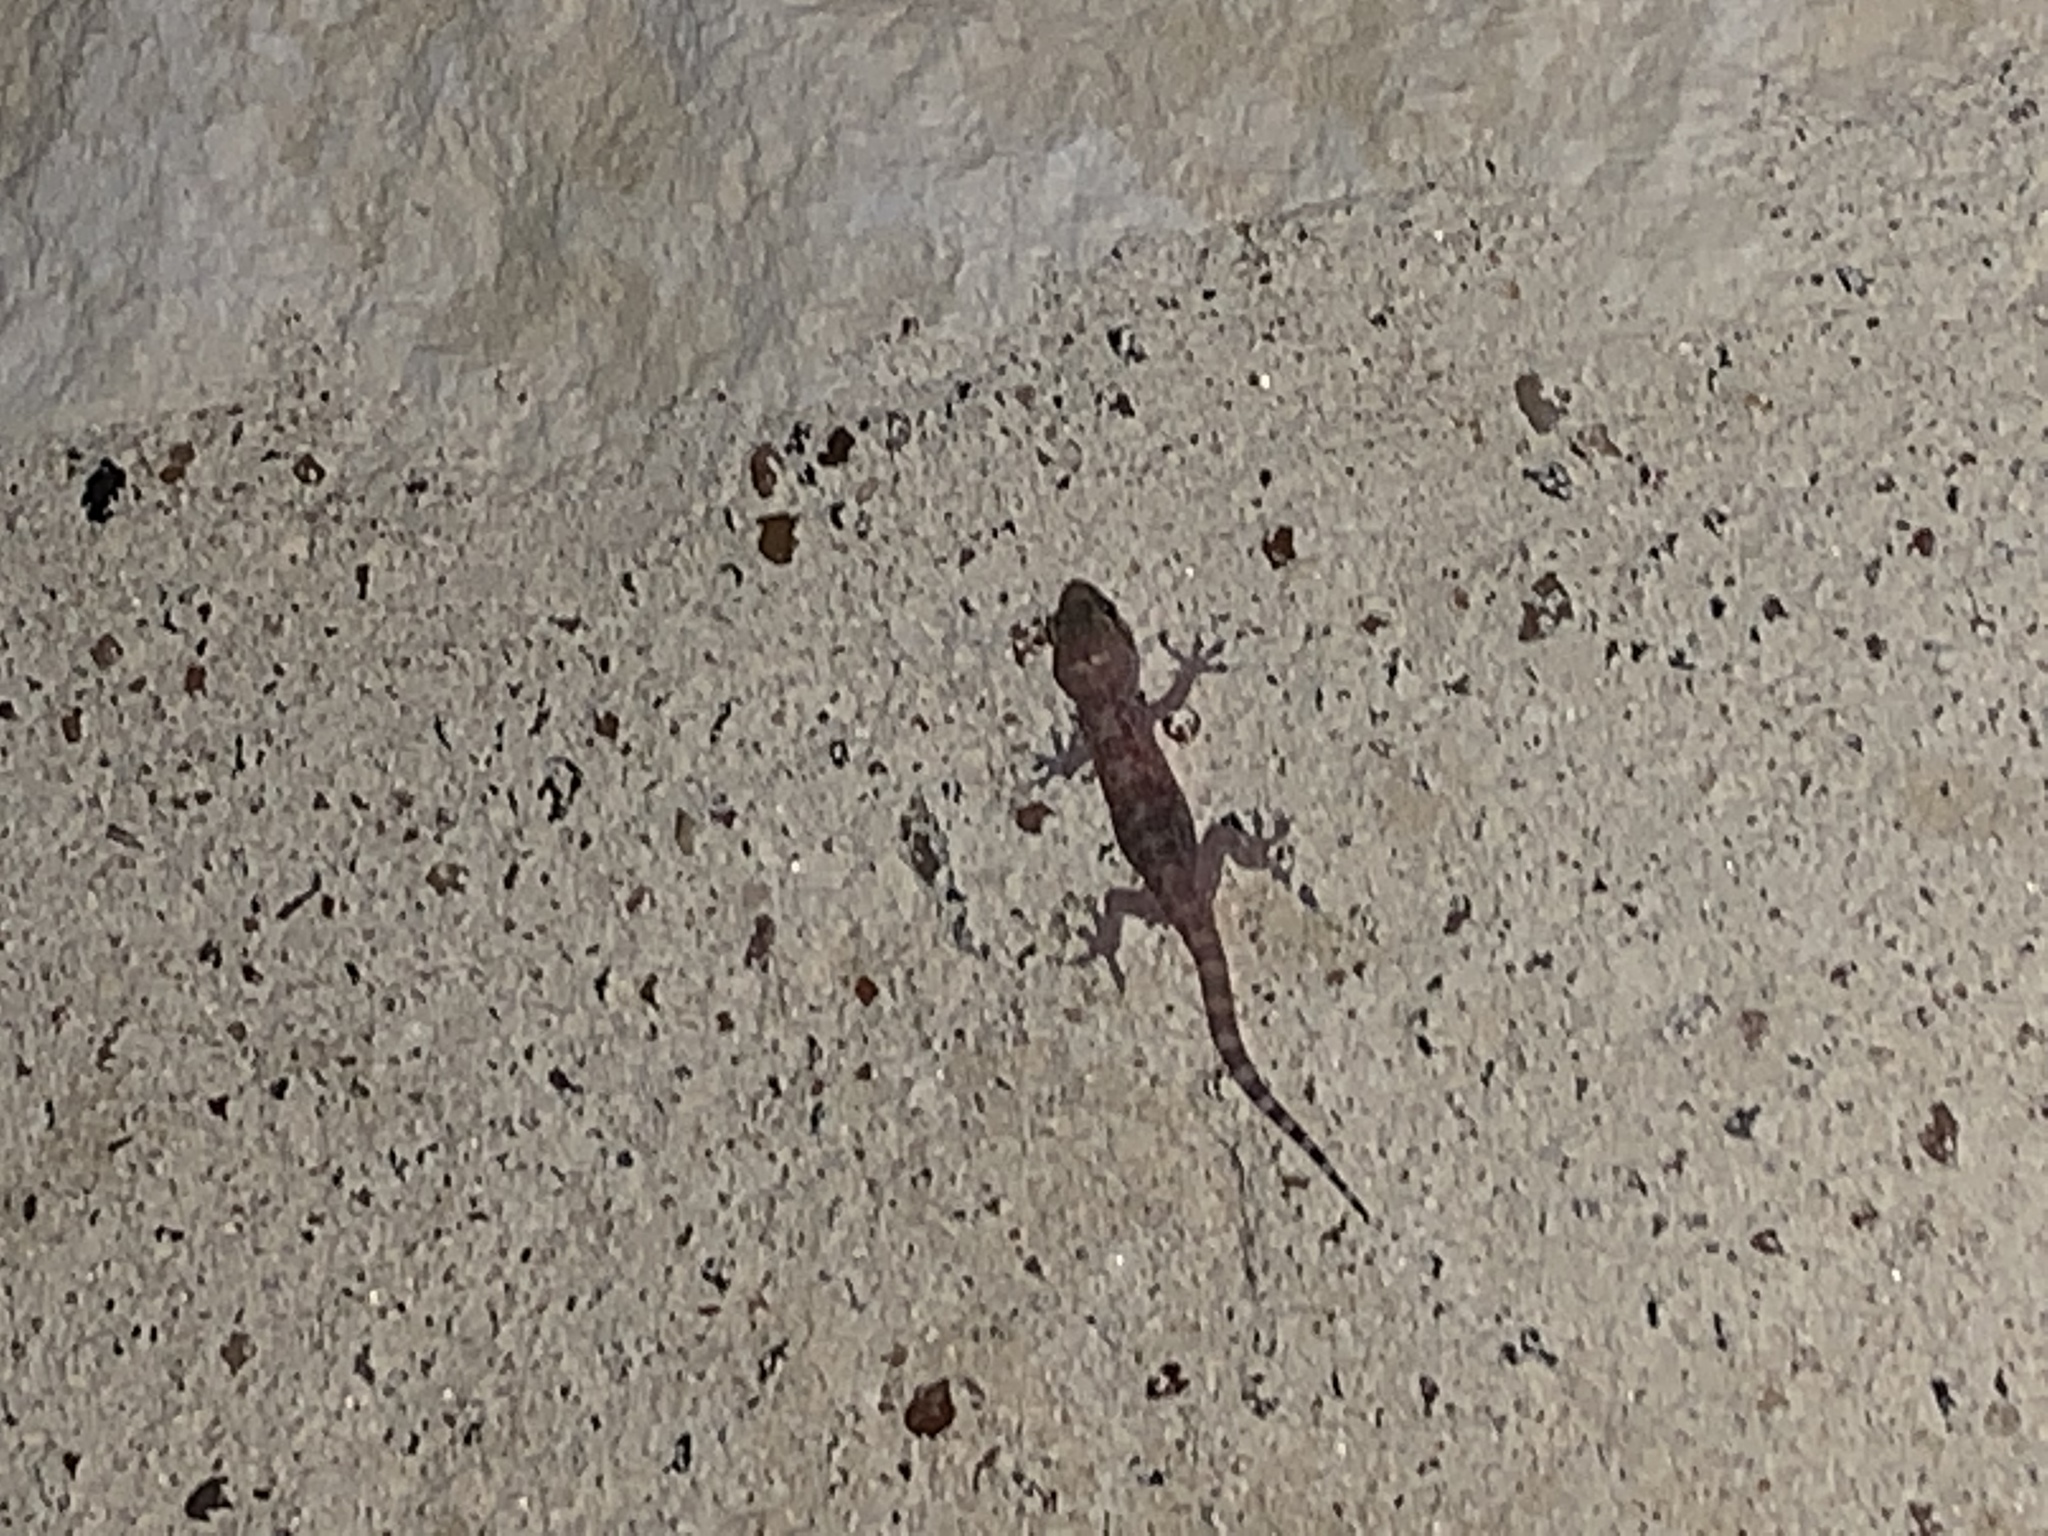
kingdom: Animalia
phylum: Chordata
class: Squamata
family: Gekkonidae
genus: Hemidactylus
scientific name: Hemidactylus turcicus
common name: Turkish gecko
